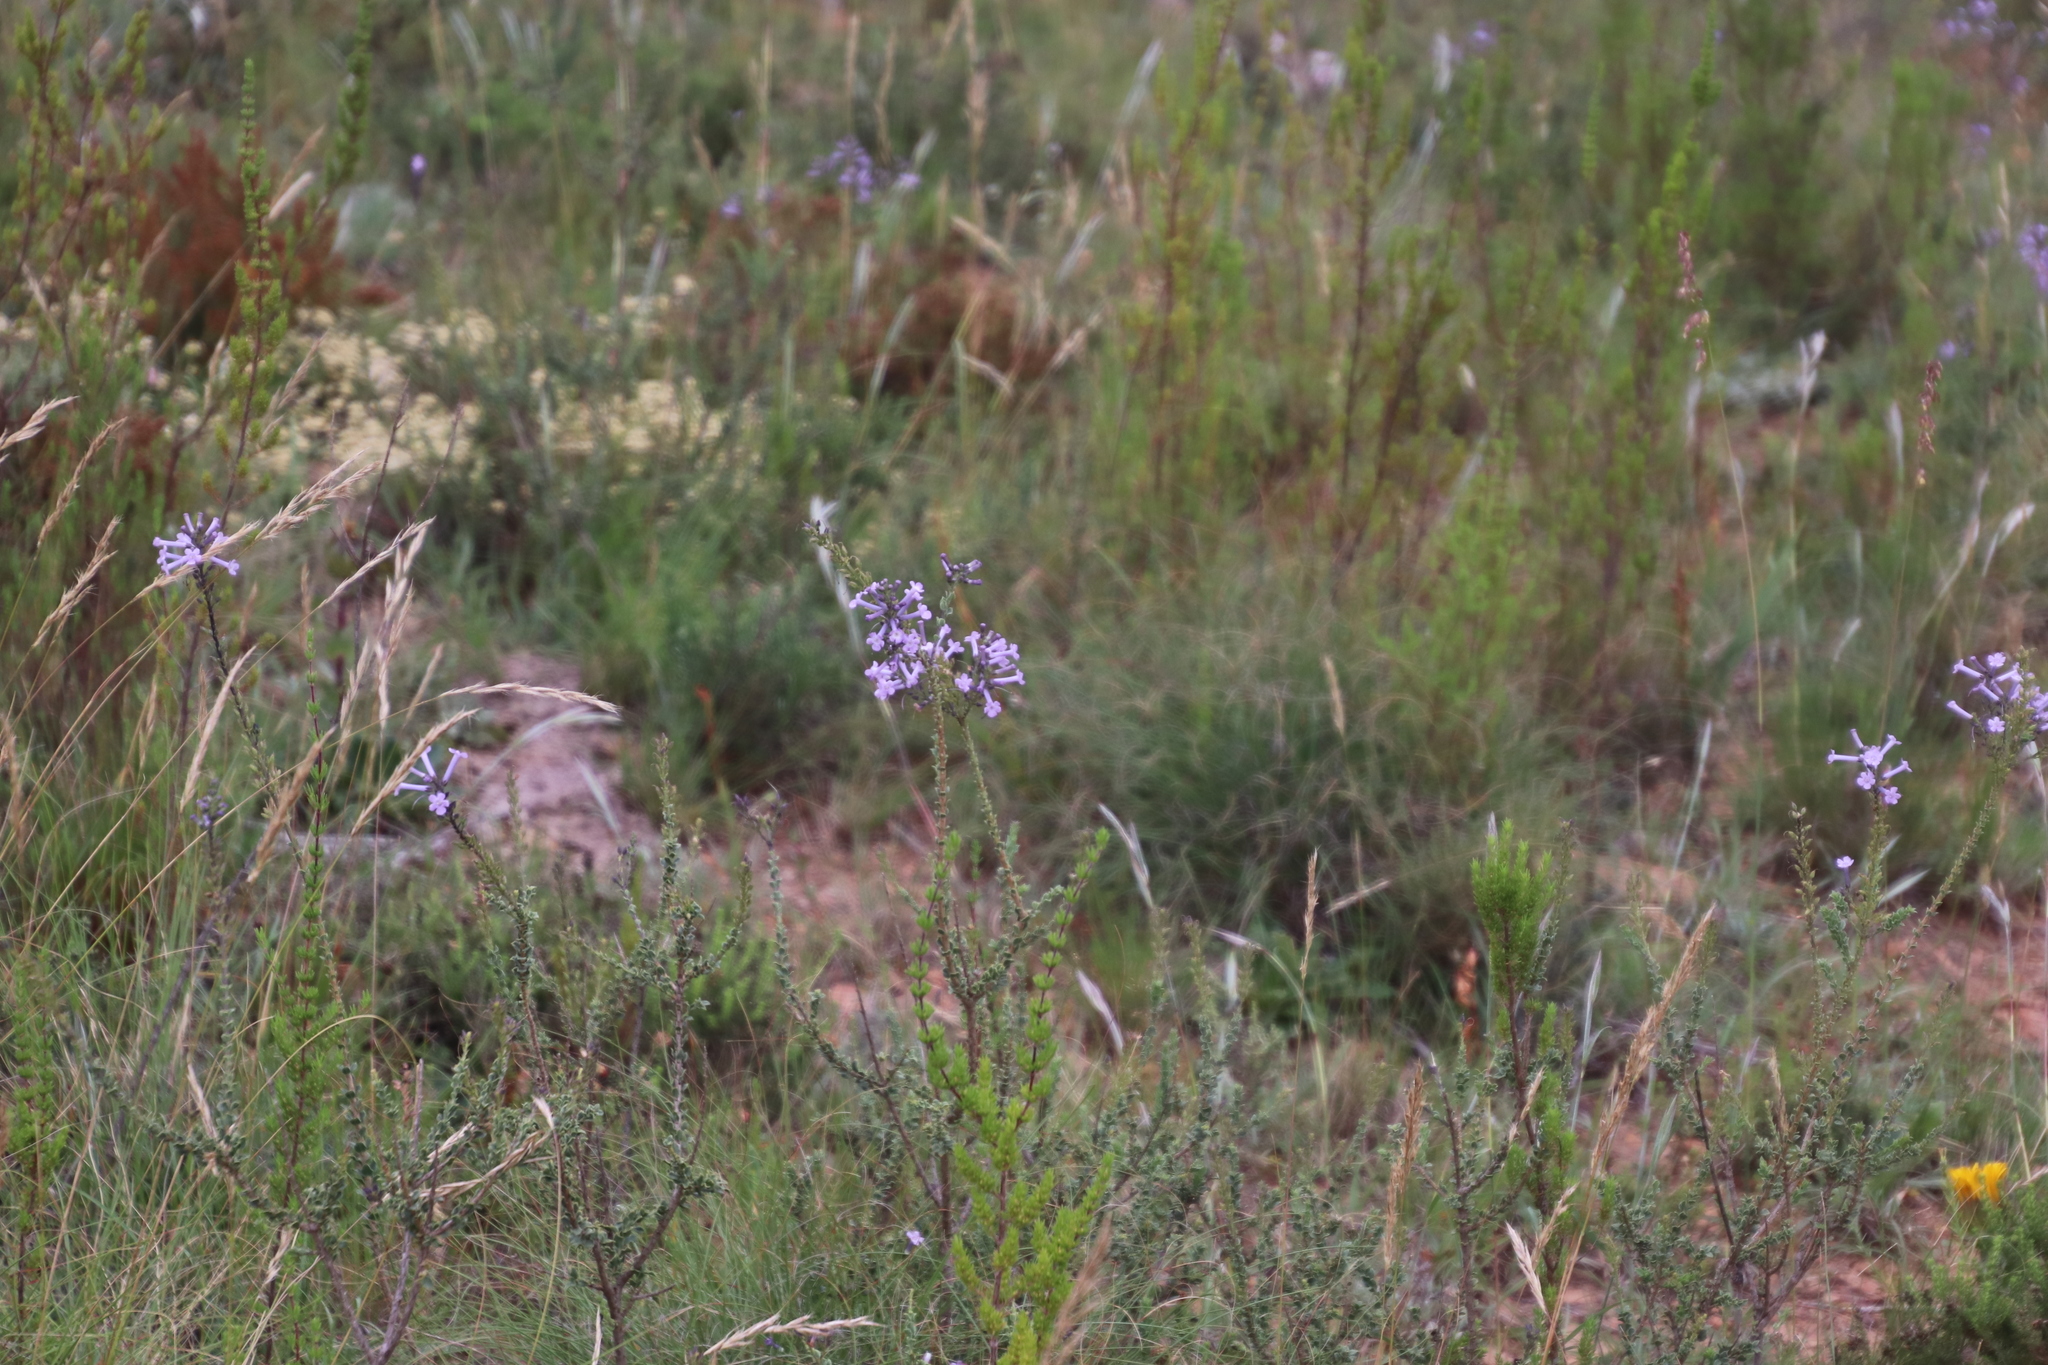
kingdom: Plantae
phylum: Tracheophyta
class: Magnoliopsida
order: Lamiales
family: Scrophulariaceae
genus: Freylinia
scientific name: Freylinia undulata
